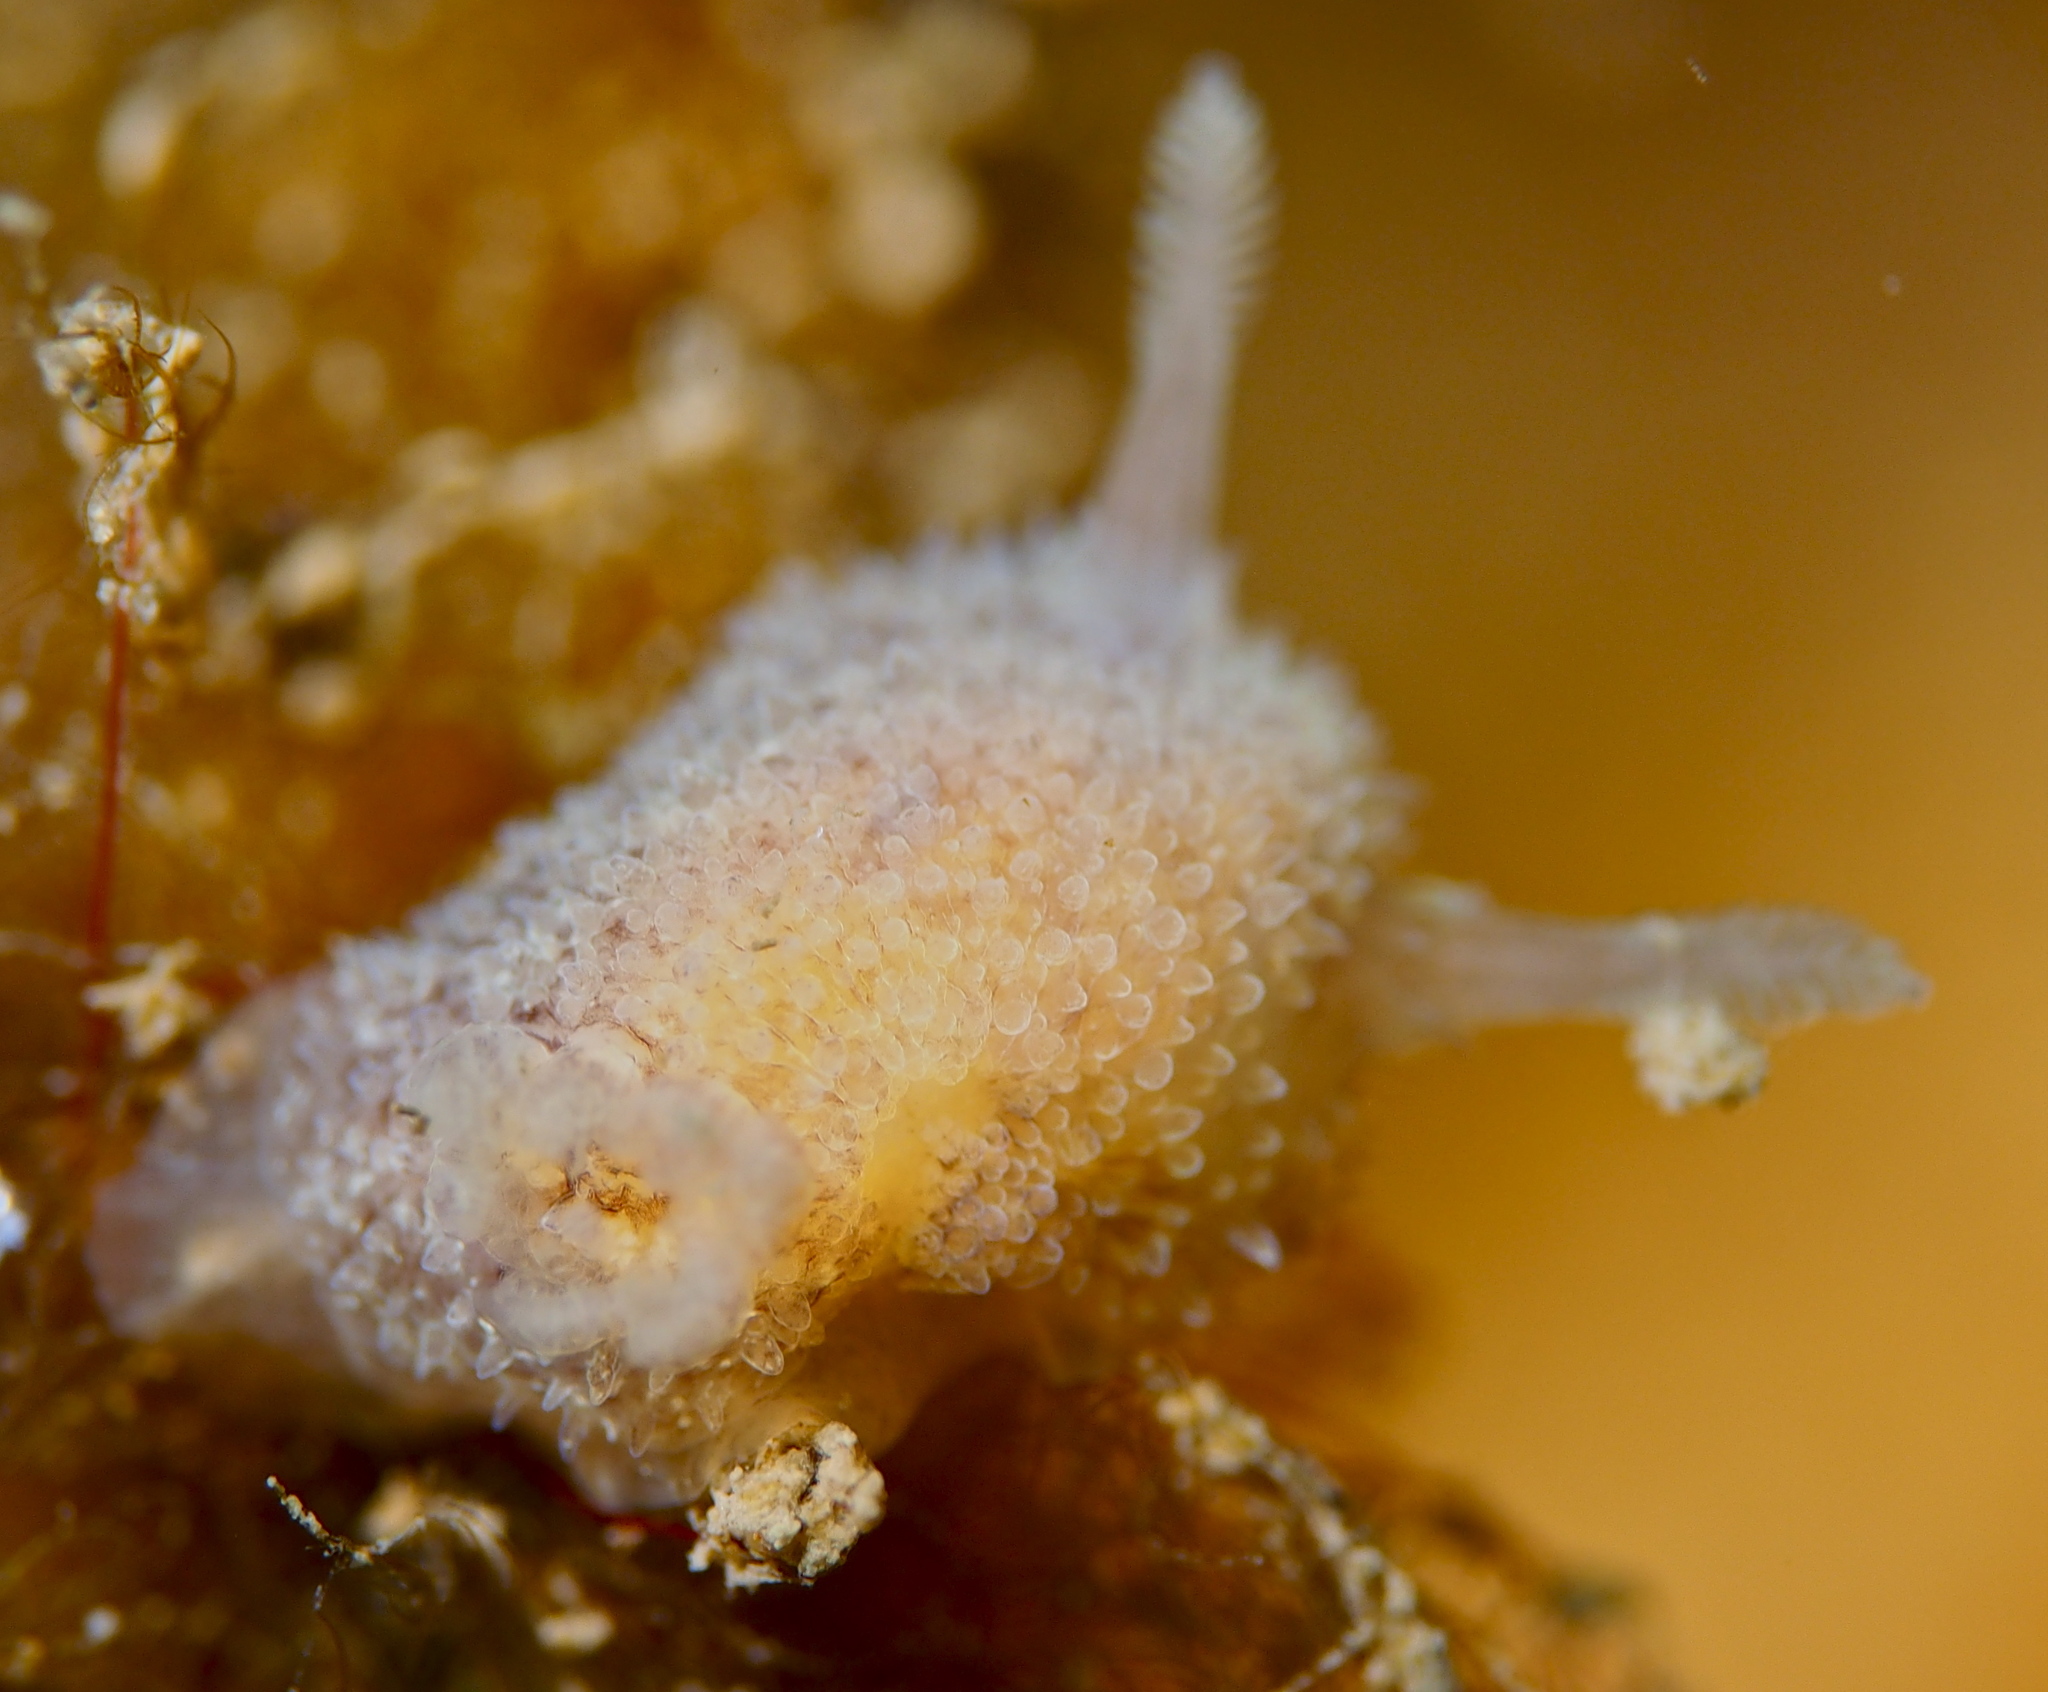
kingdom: Animalia
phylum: Mollusca
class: Gastropoda
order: Nudibranchia
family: Onchidorididae
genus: Acanthodoris
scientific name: Acanthodoris pilosa
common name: Hairy spiny doris
